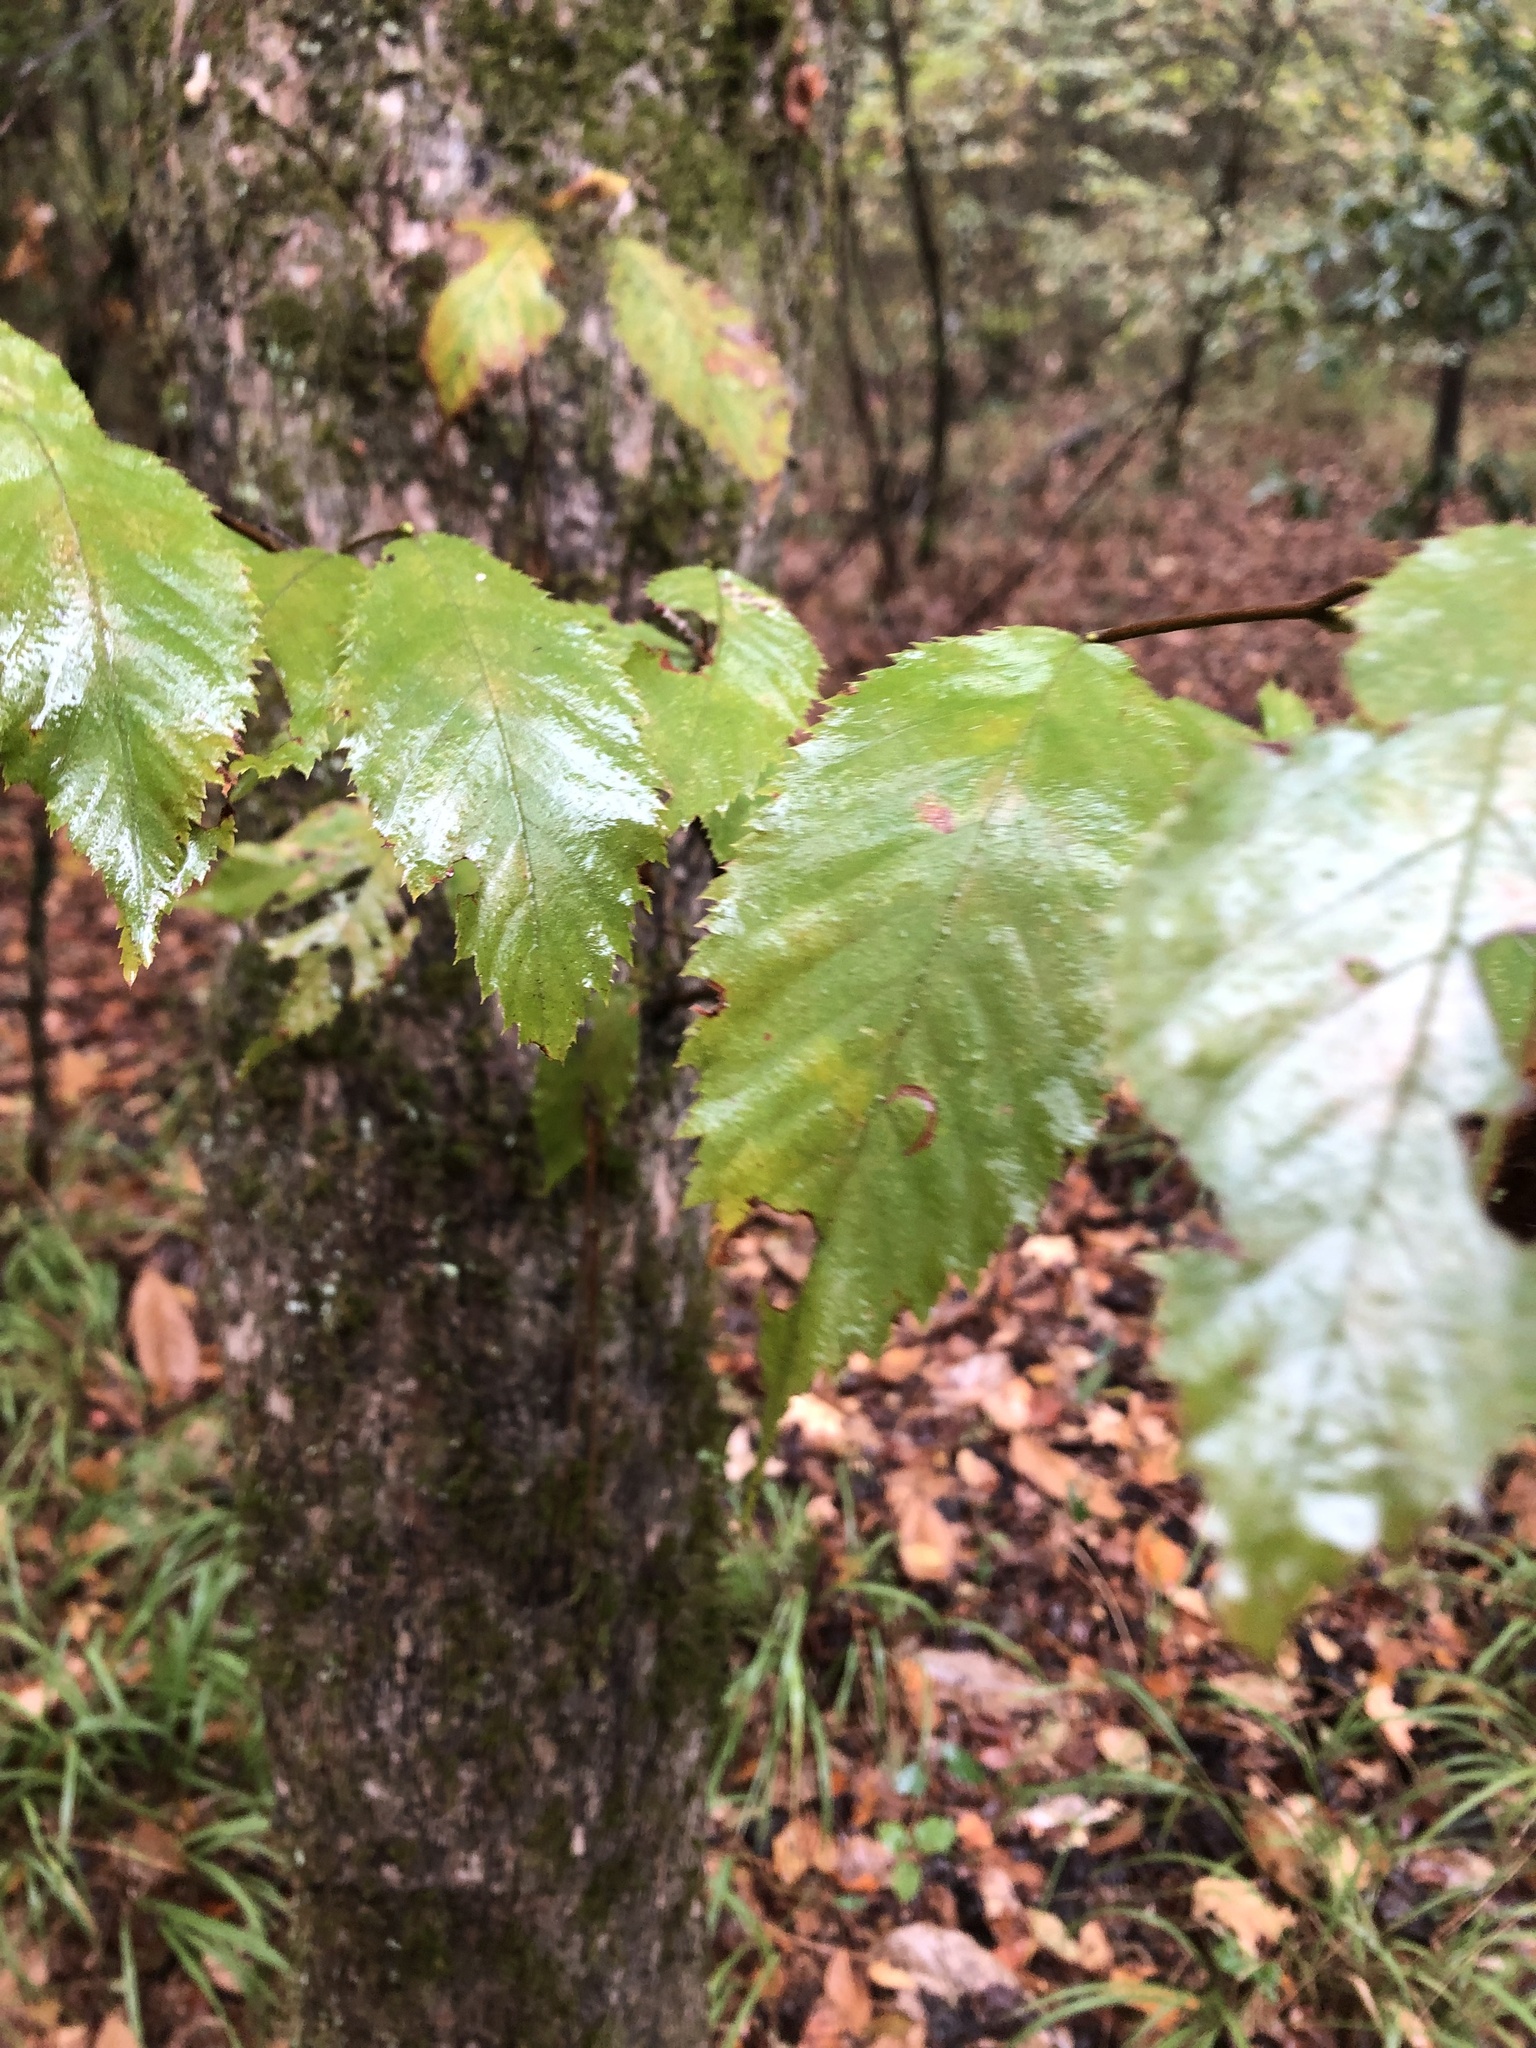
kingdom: Plantae
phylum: Tracheophyta
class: Magnoliopsida
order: Fagales
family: Fagaceae
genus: Fagus
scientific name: Fagus grandifolia
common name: American beech
